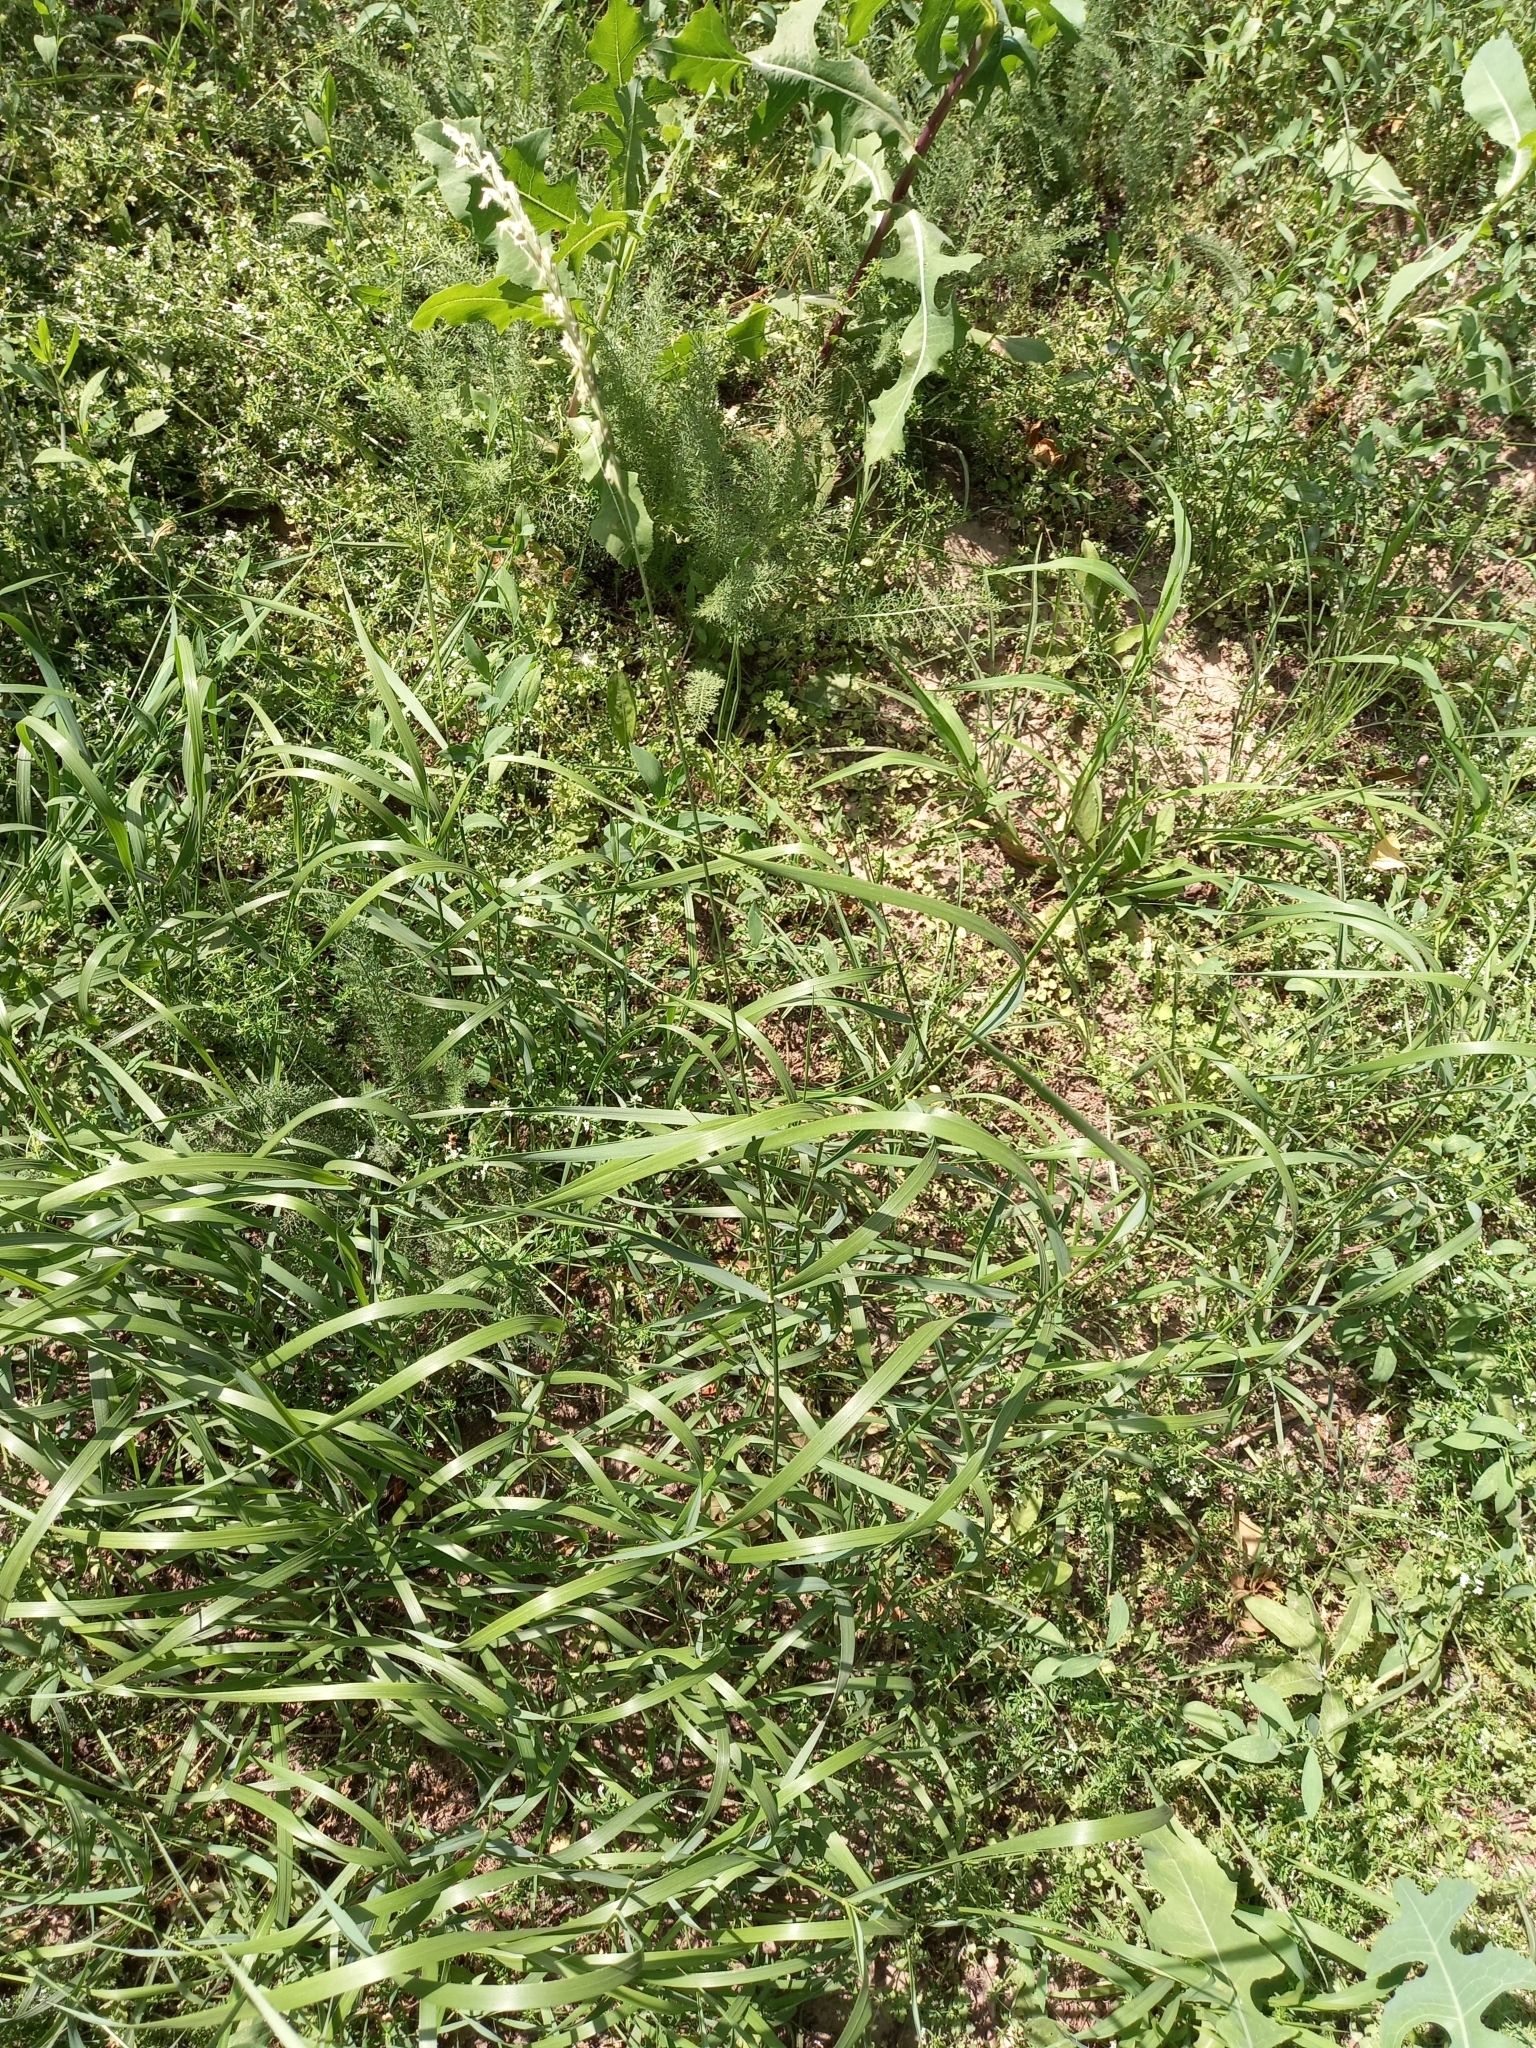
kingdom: Plantae
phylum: Tracheophyta
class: Liliopsida
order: Poales
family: Poaceae
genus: Elymus
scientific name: Elymus repens
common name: Quackgrass
